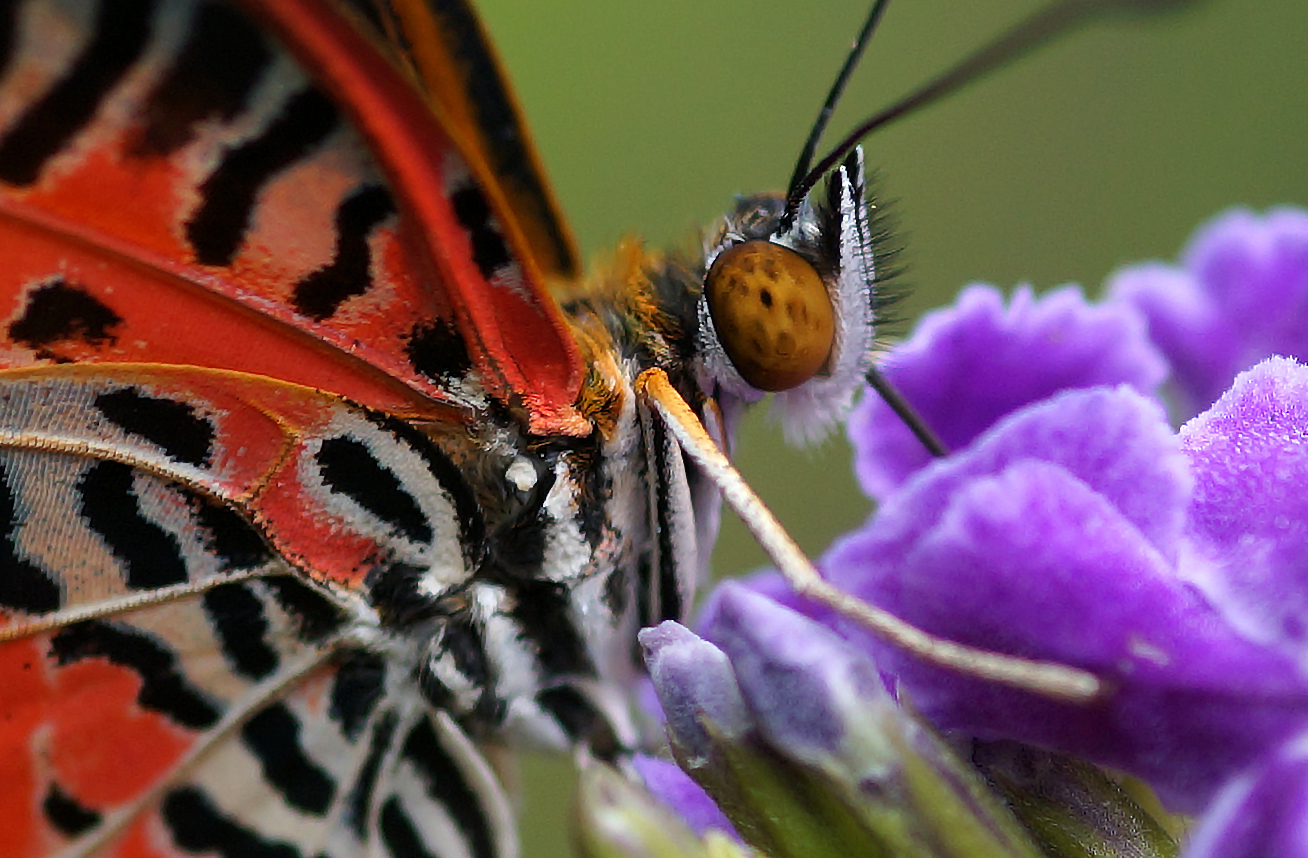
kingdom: Animalia
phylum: Arthropoda
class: Insecta
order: Lepidoptera
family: Nymphalidae
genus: Cethosia
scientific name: Cethosia cyane
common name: Leopard lacewing butterfly
